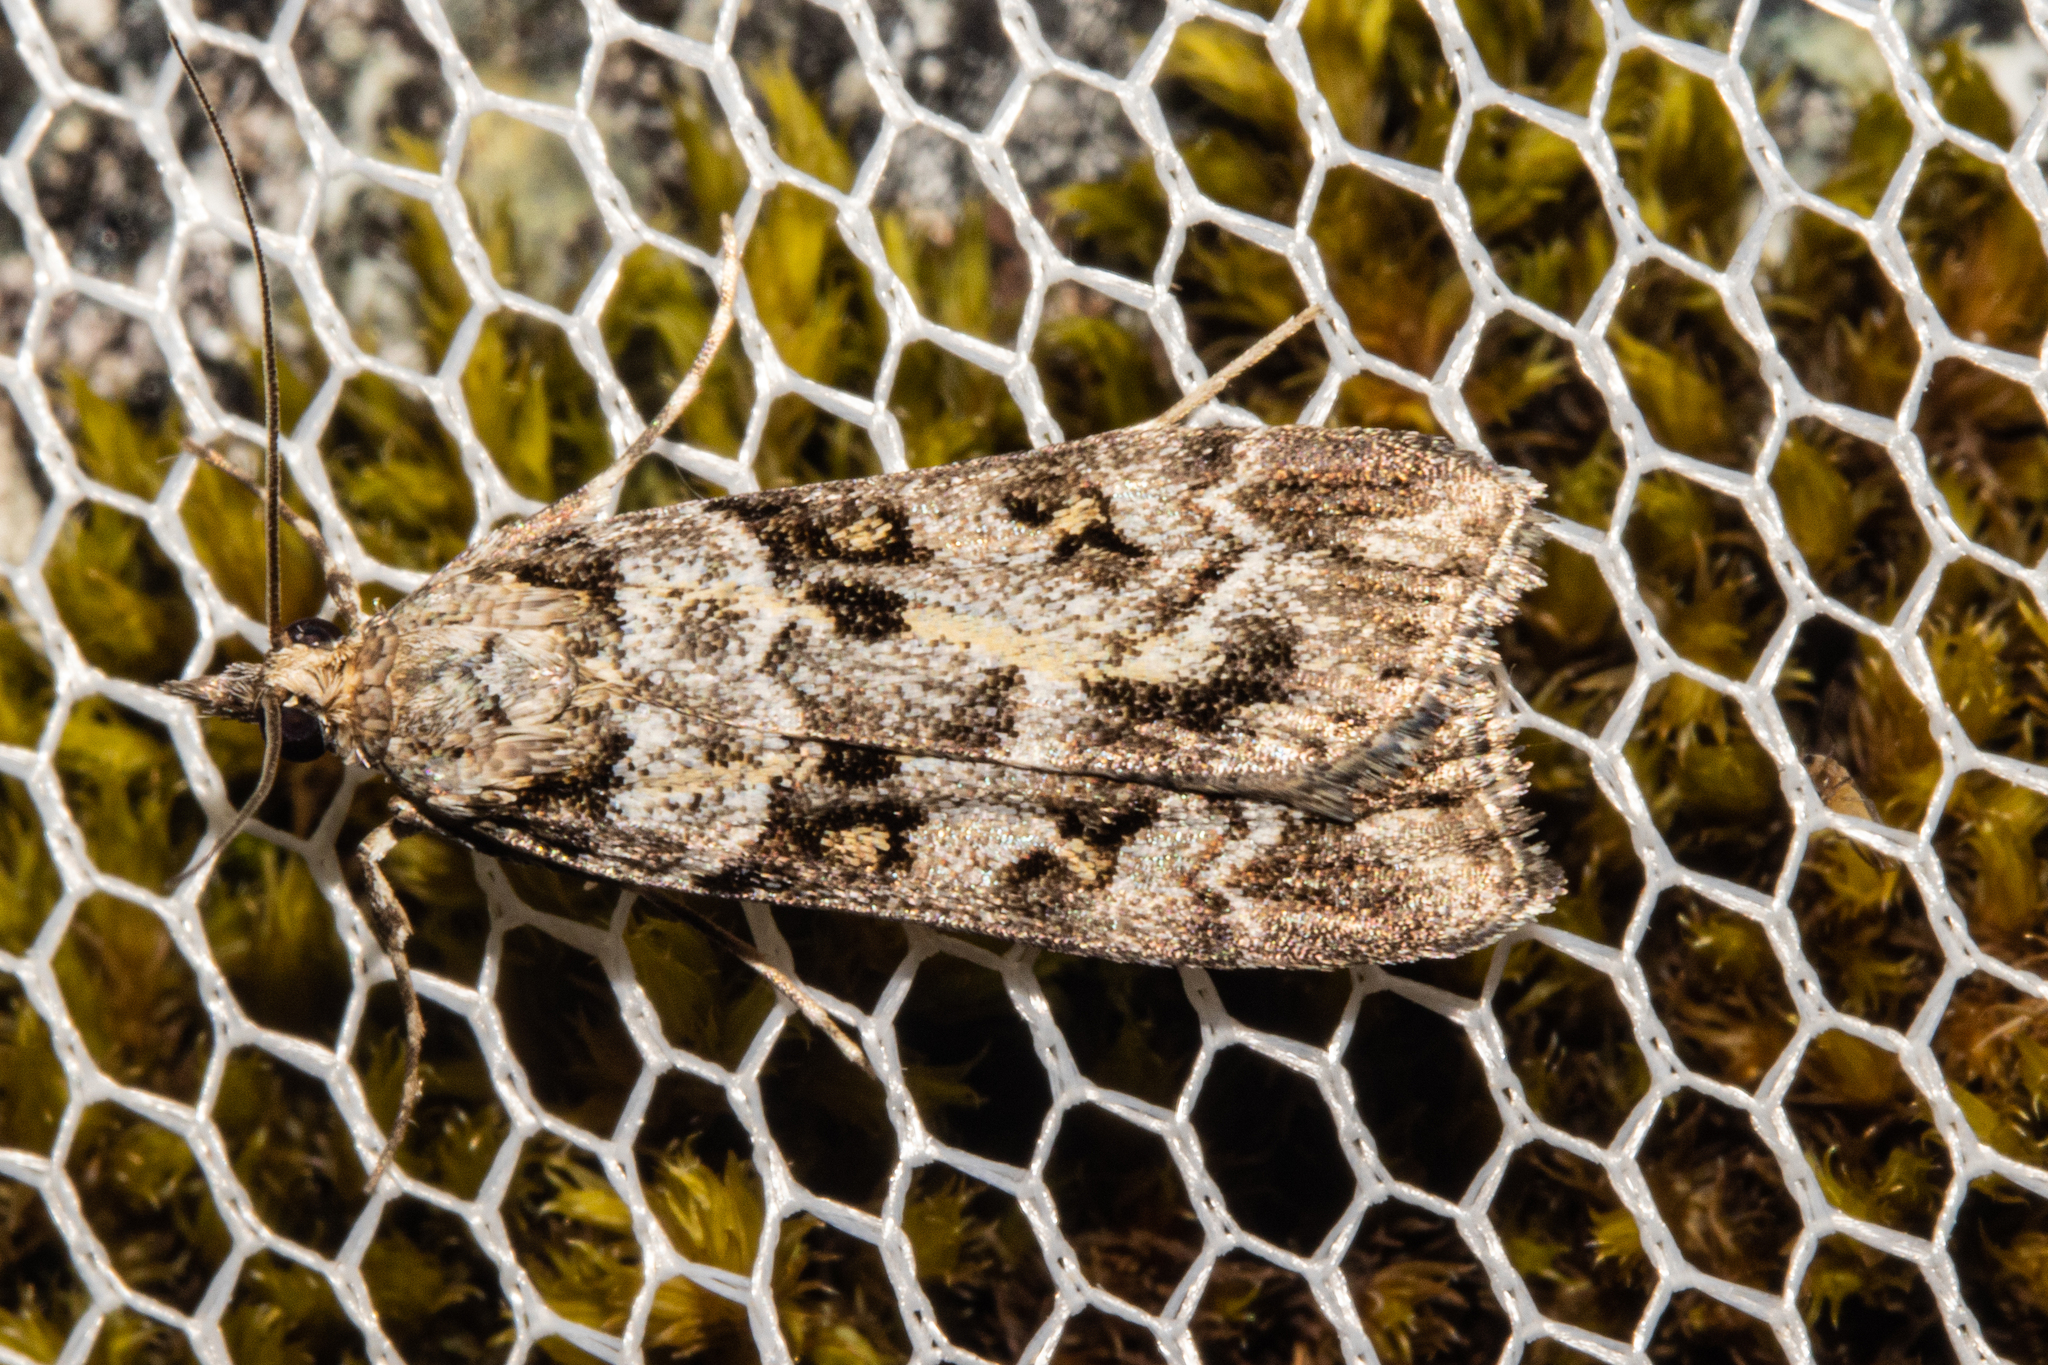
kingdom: Animalia
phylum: Arthropoda
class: Insecta
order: Lepidoptera
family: Crambidae
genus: Eudonia
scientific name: Eudonia diphtheralis
